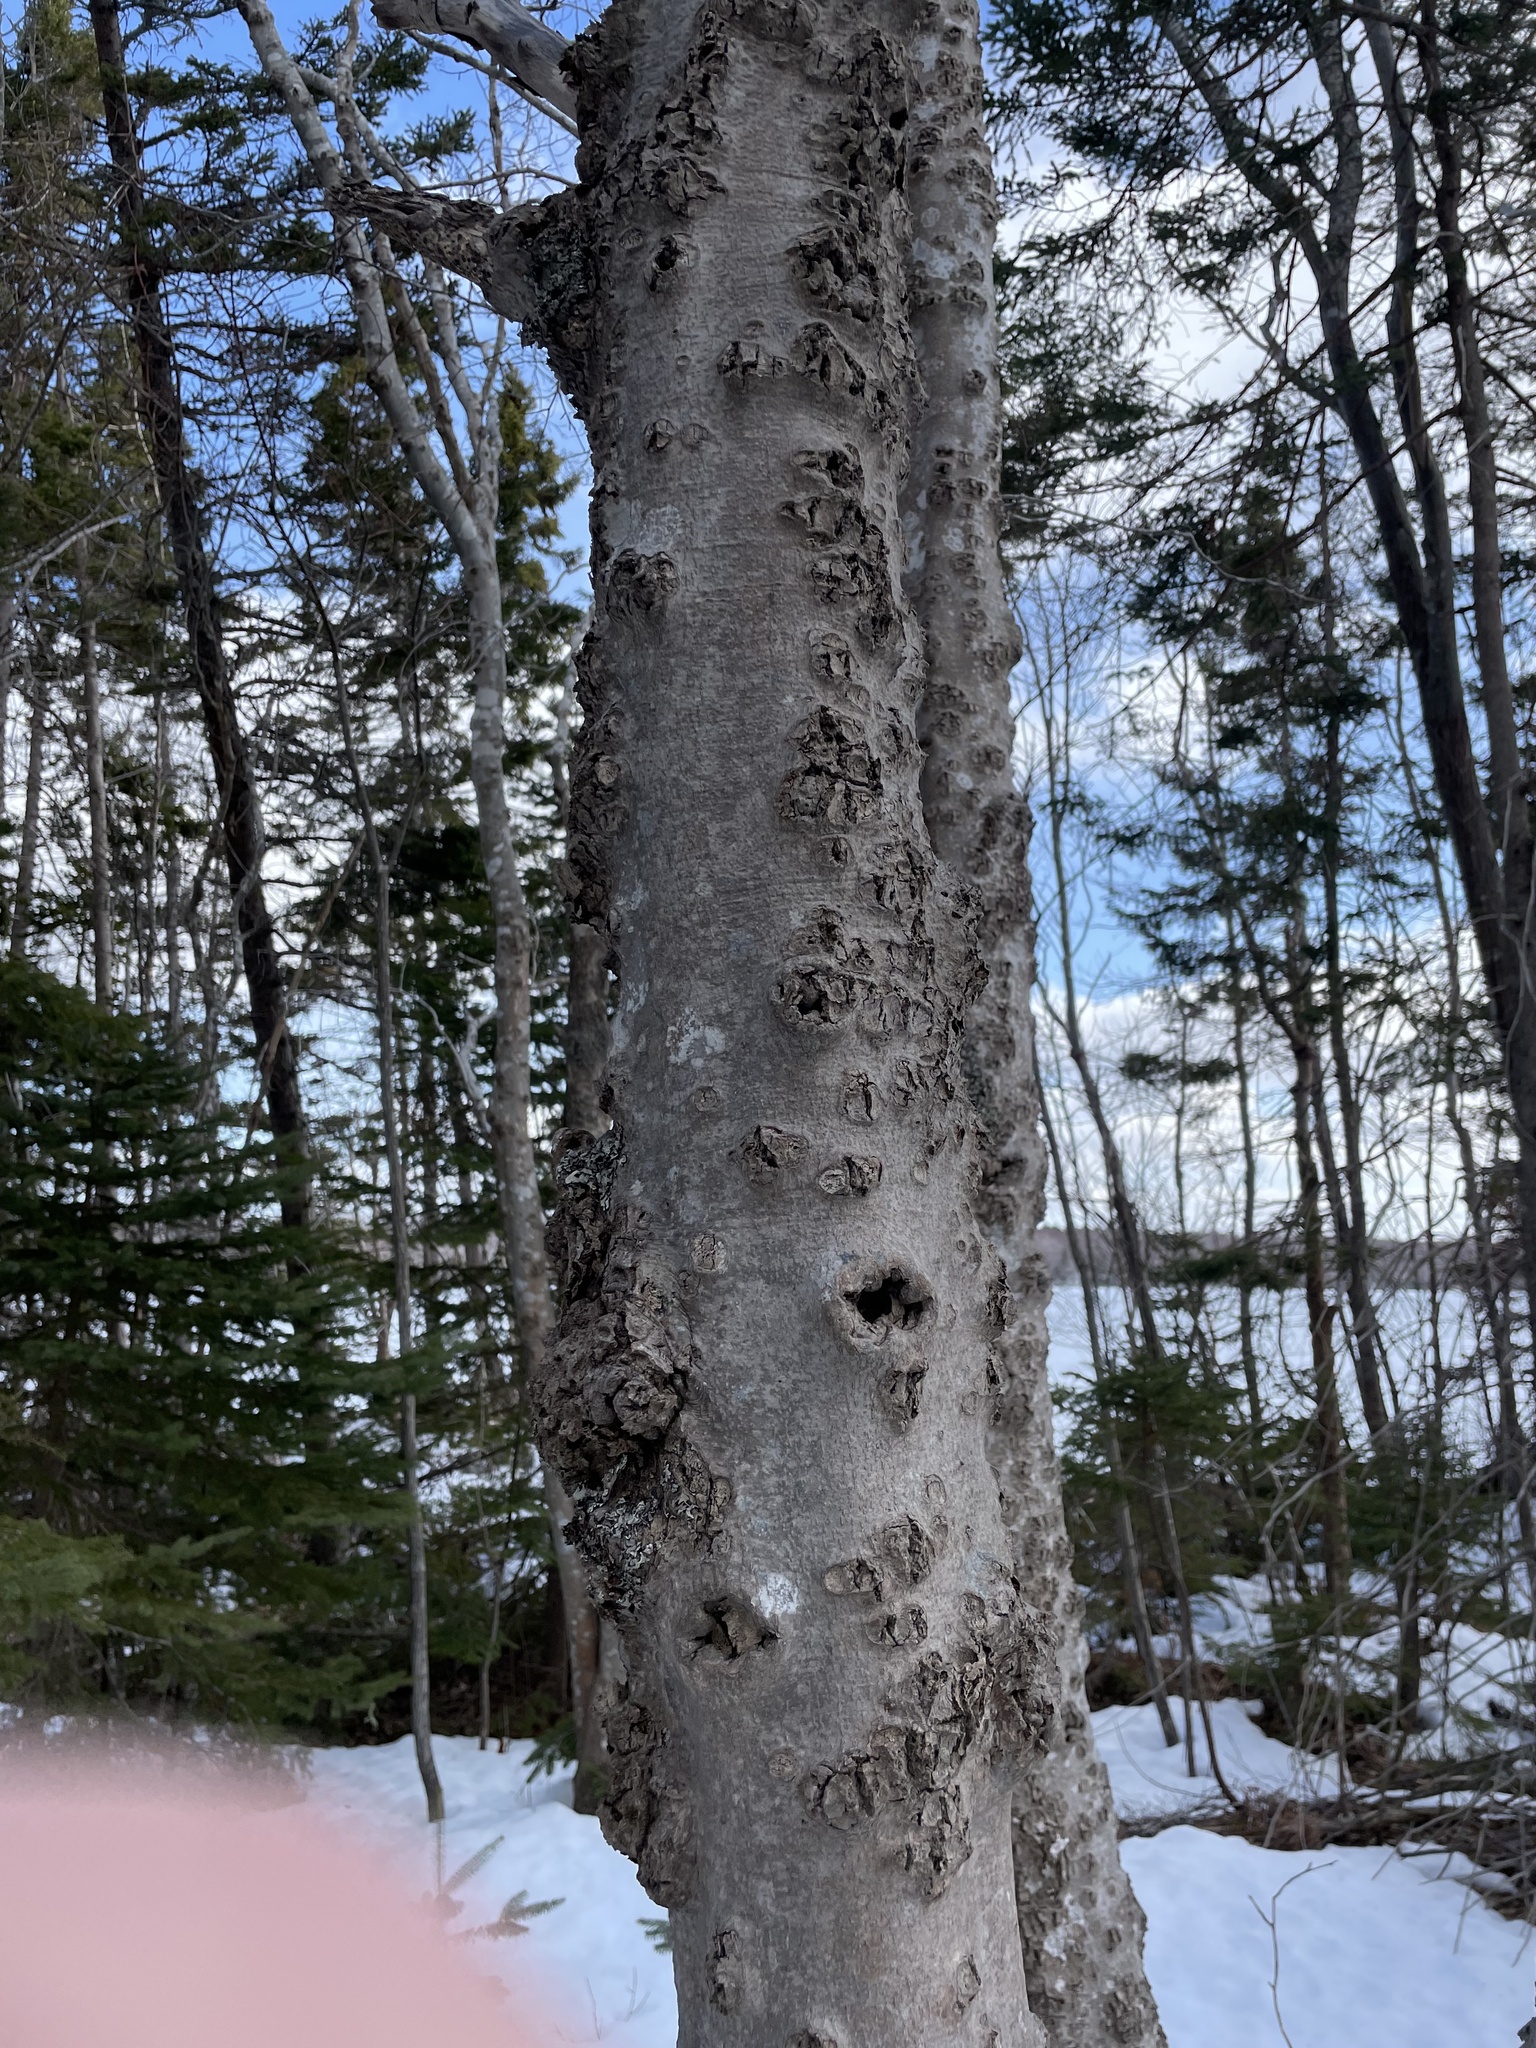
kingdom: Fungi
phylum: Ascomycota
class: Sordariomycetes
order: Hypocreales
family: Nectriaceae
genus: Neonectria
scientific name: Neonectria faginata
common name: Beech bark canker
